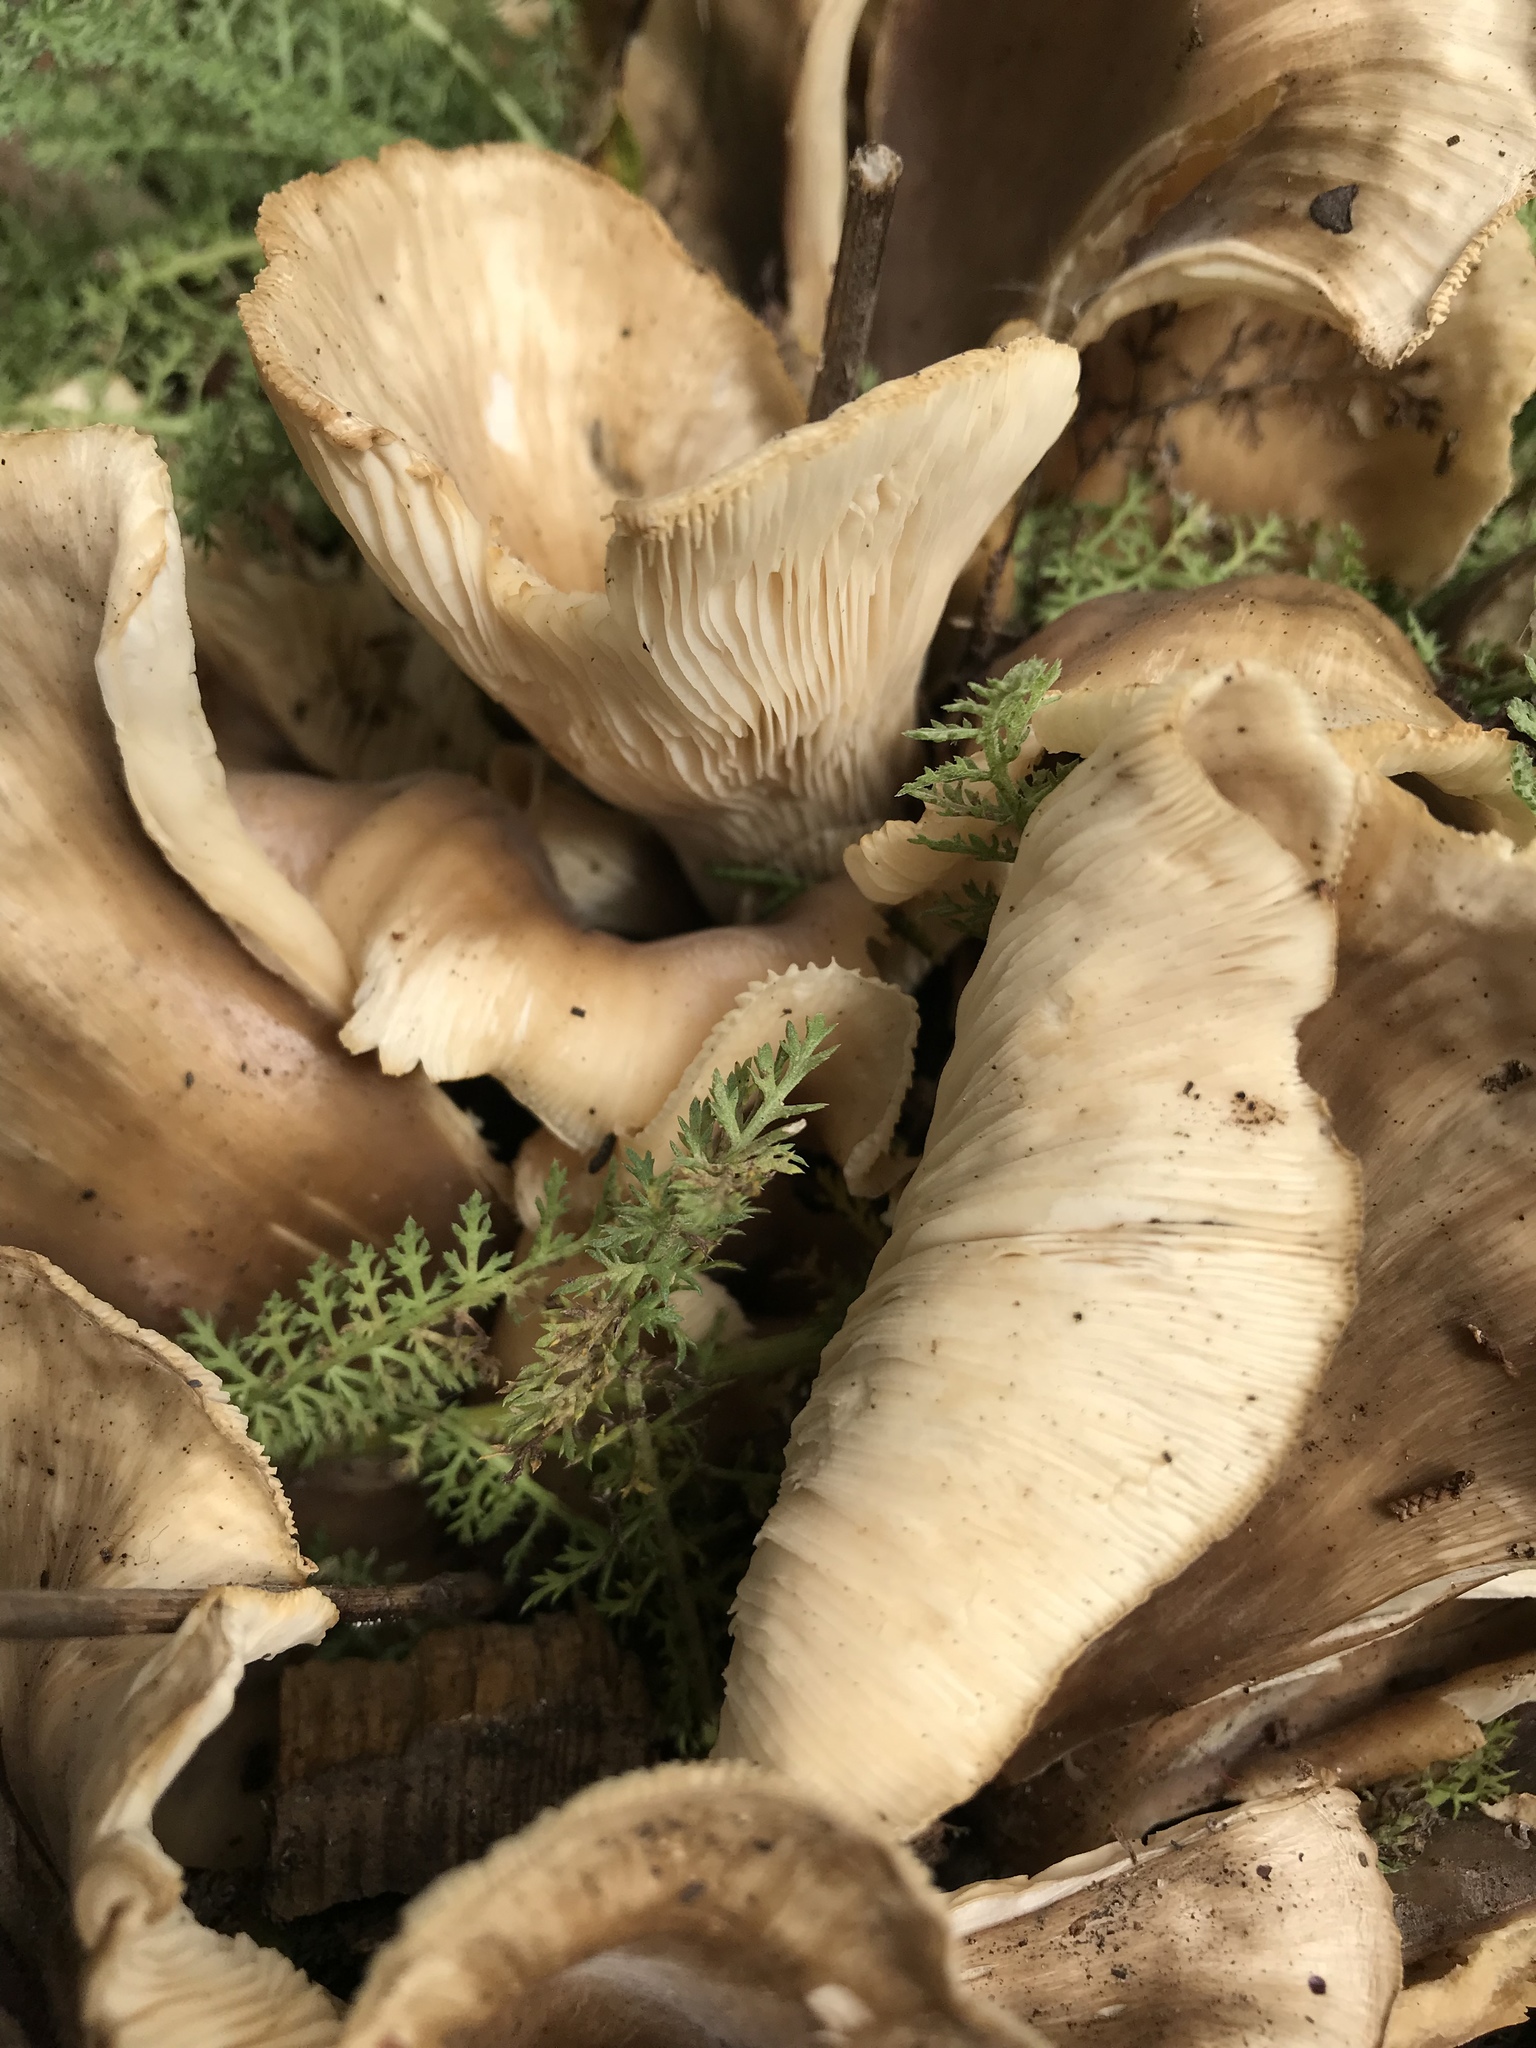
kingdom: Fungi
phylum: Basidiomycota
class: Agaricomycetes
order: Agaricales
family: Pleurotaceae
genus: Hohenbuehelia
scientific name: Hohenbuehelia petaloides
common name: Shoehorn oyster
